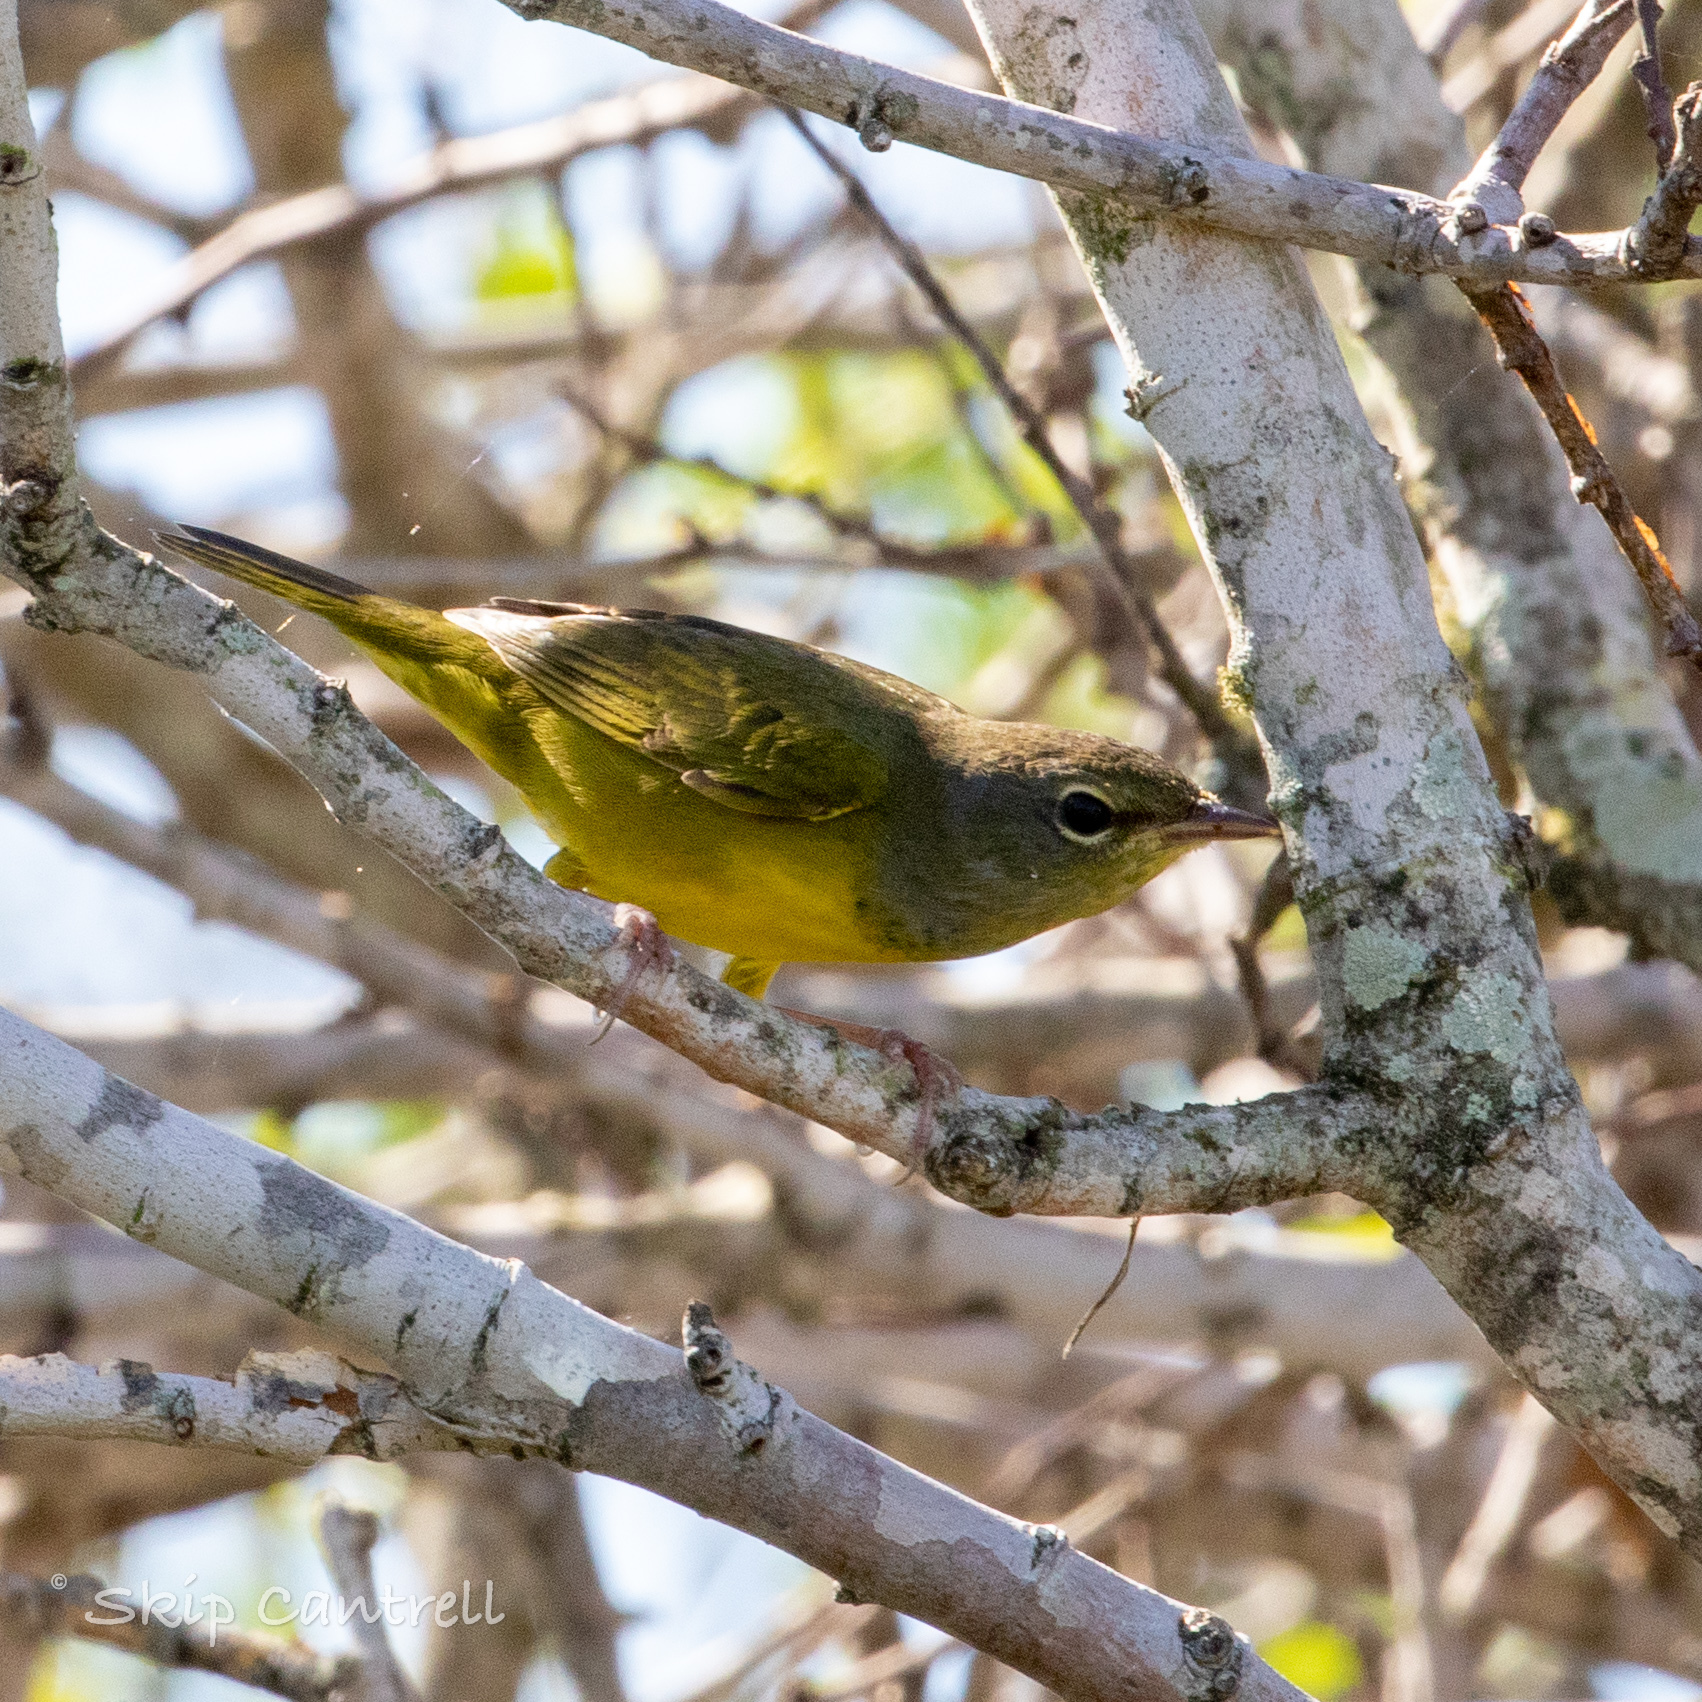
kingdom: Animalia
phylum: Chordata
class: Aves
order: Passeriformes
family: Parulidae
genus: Geothlypis
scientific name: Geothlypis philadelphia
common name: Mourning warbler
